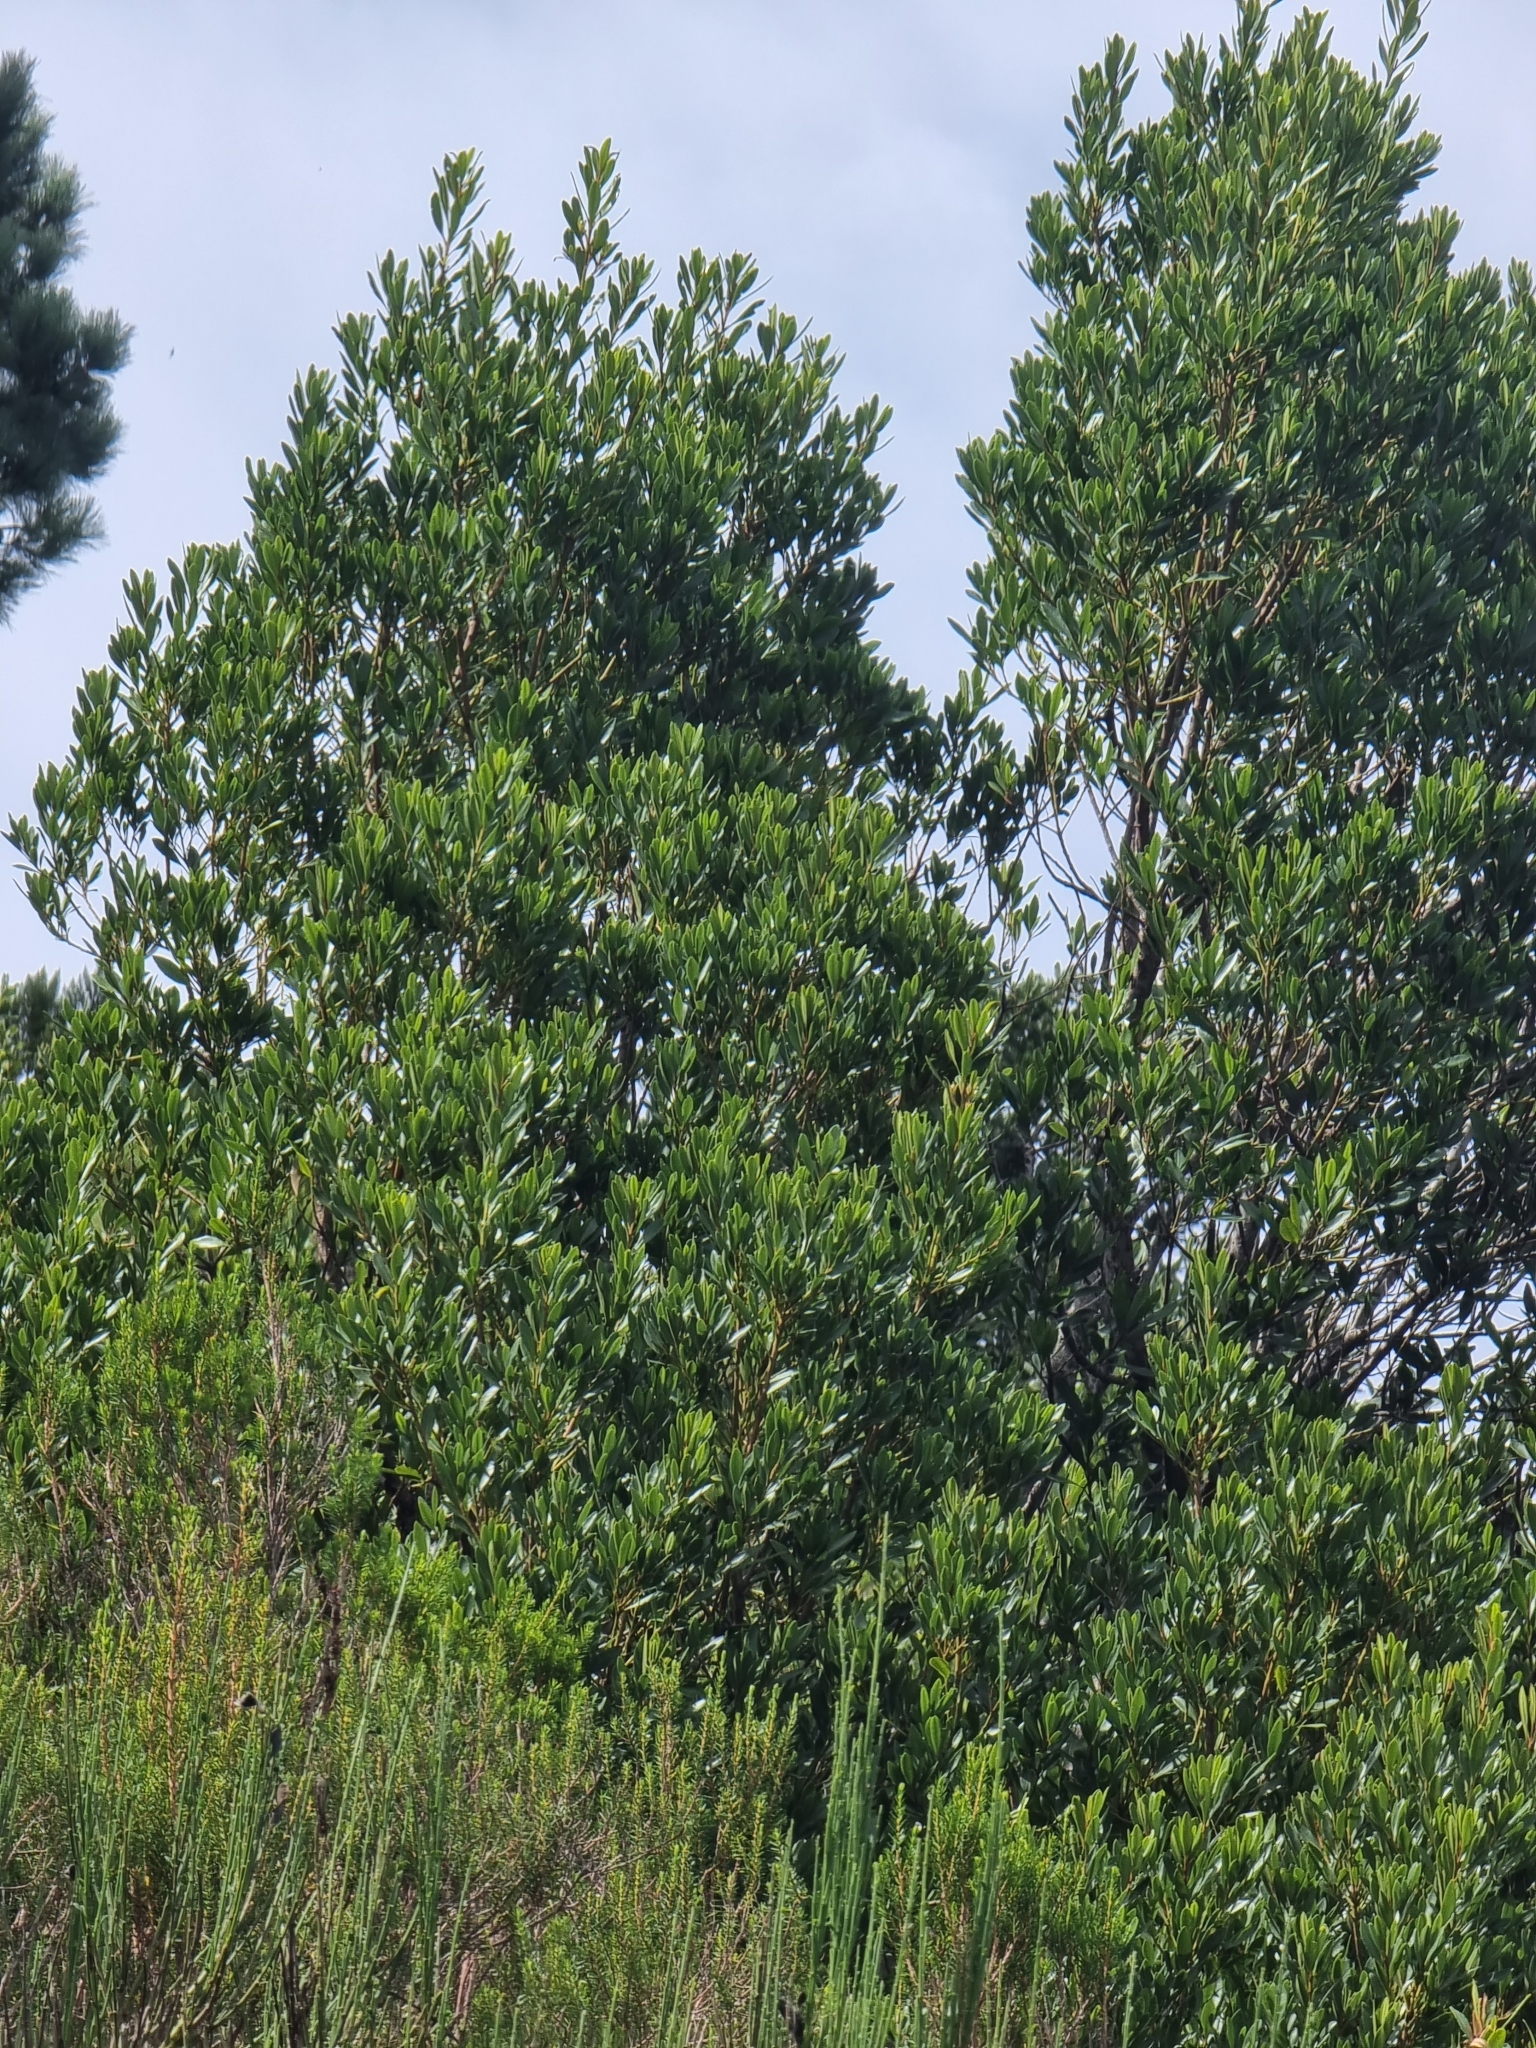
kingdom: Plantae
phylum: Tracheophyta
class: Magnoliopsida
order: Fagales
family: Myricaceae
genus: Morella
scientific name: Morella faya
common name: Firetree
